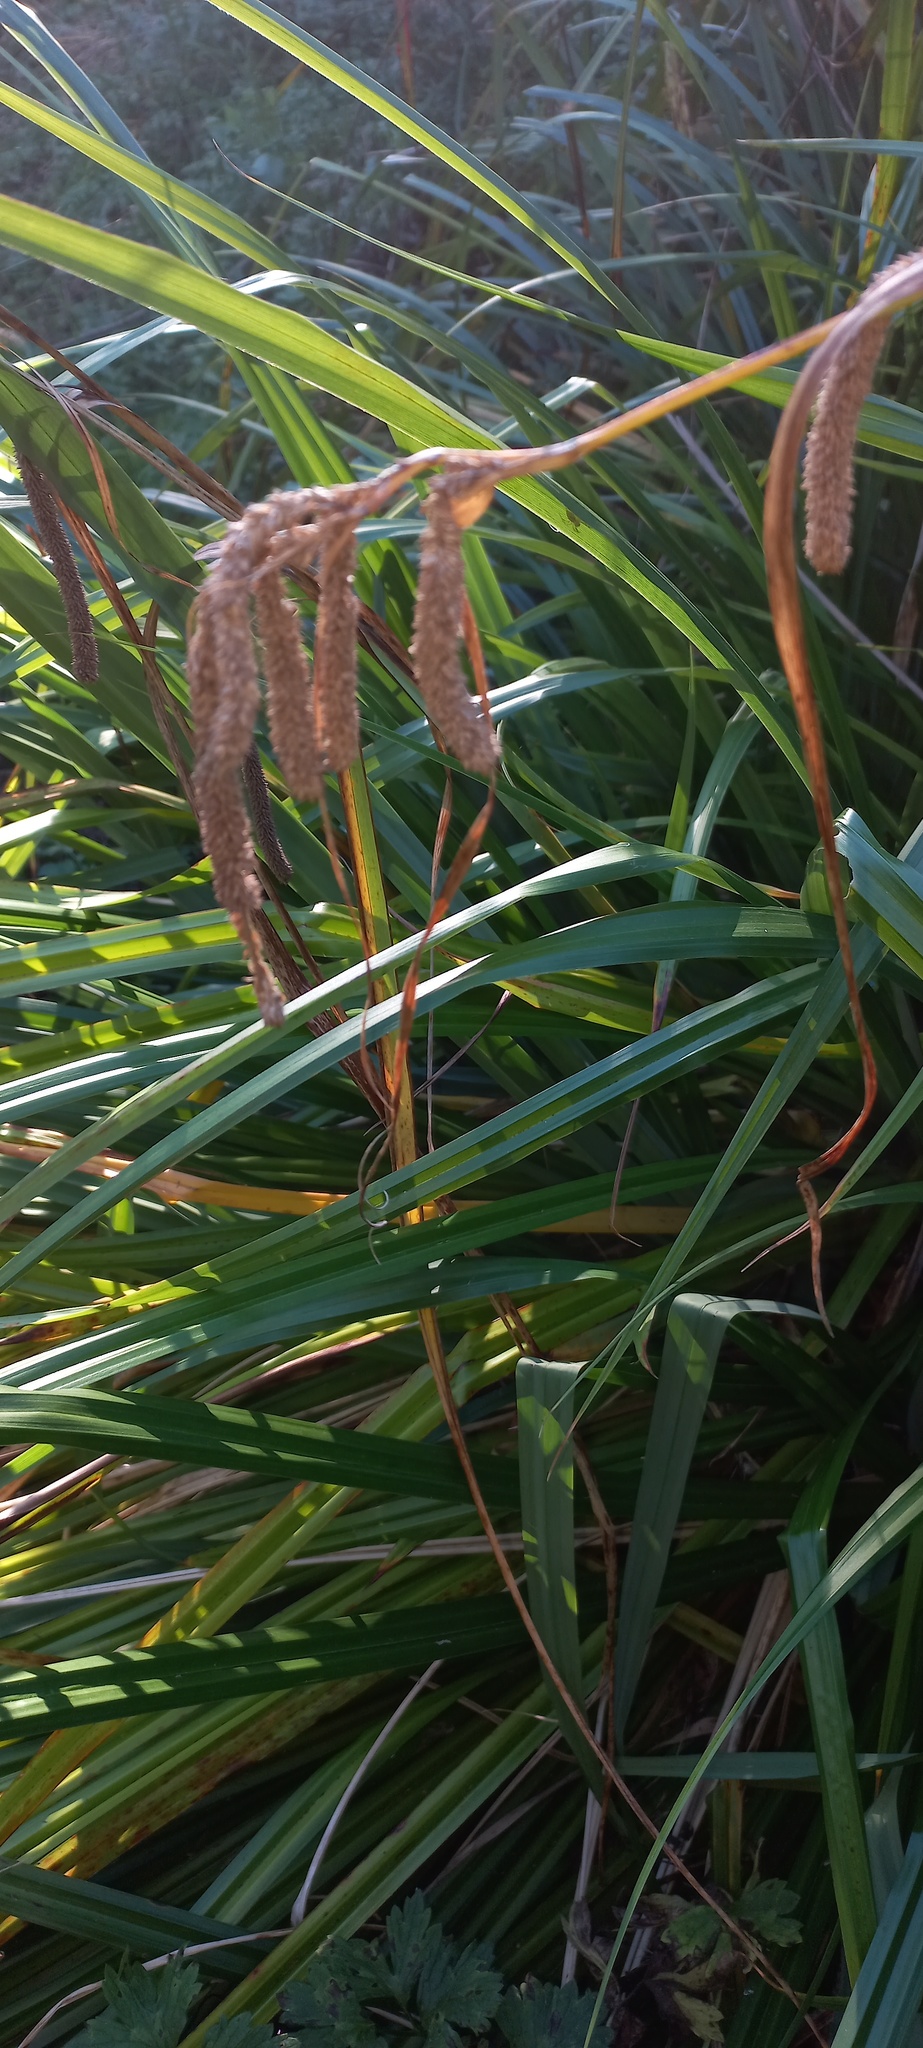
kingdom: Plantae
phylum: Tracheophyta
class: Liliopsida
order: Poales
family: Cyperaceae
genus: Carex
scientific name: Carex pendula
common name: Pendulous sedge
